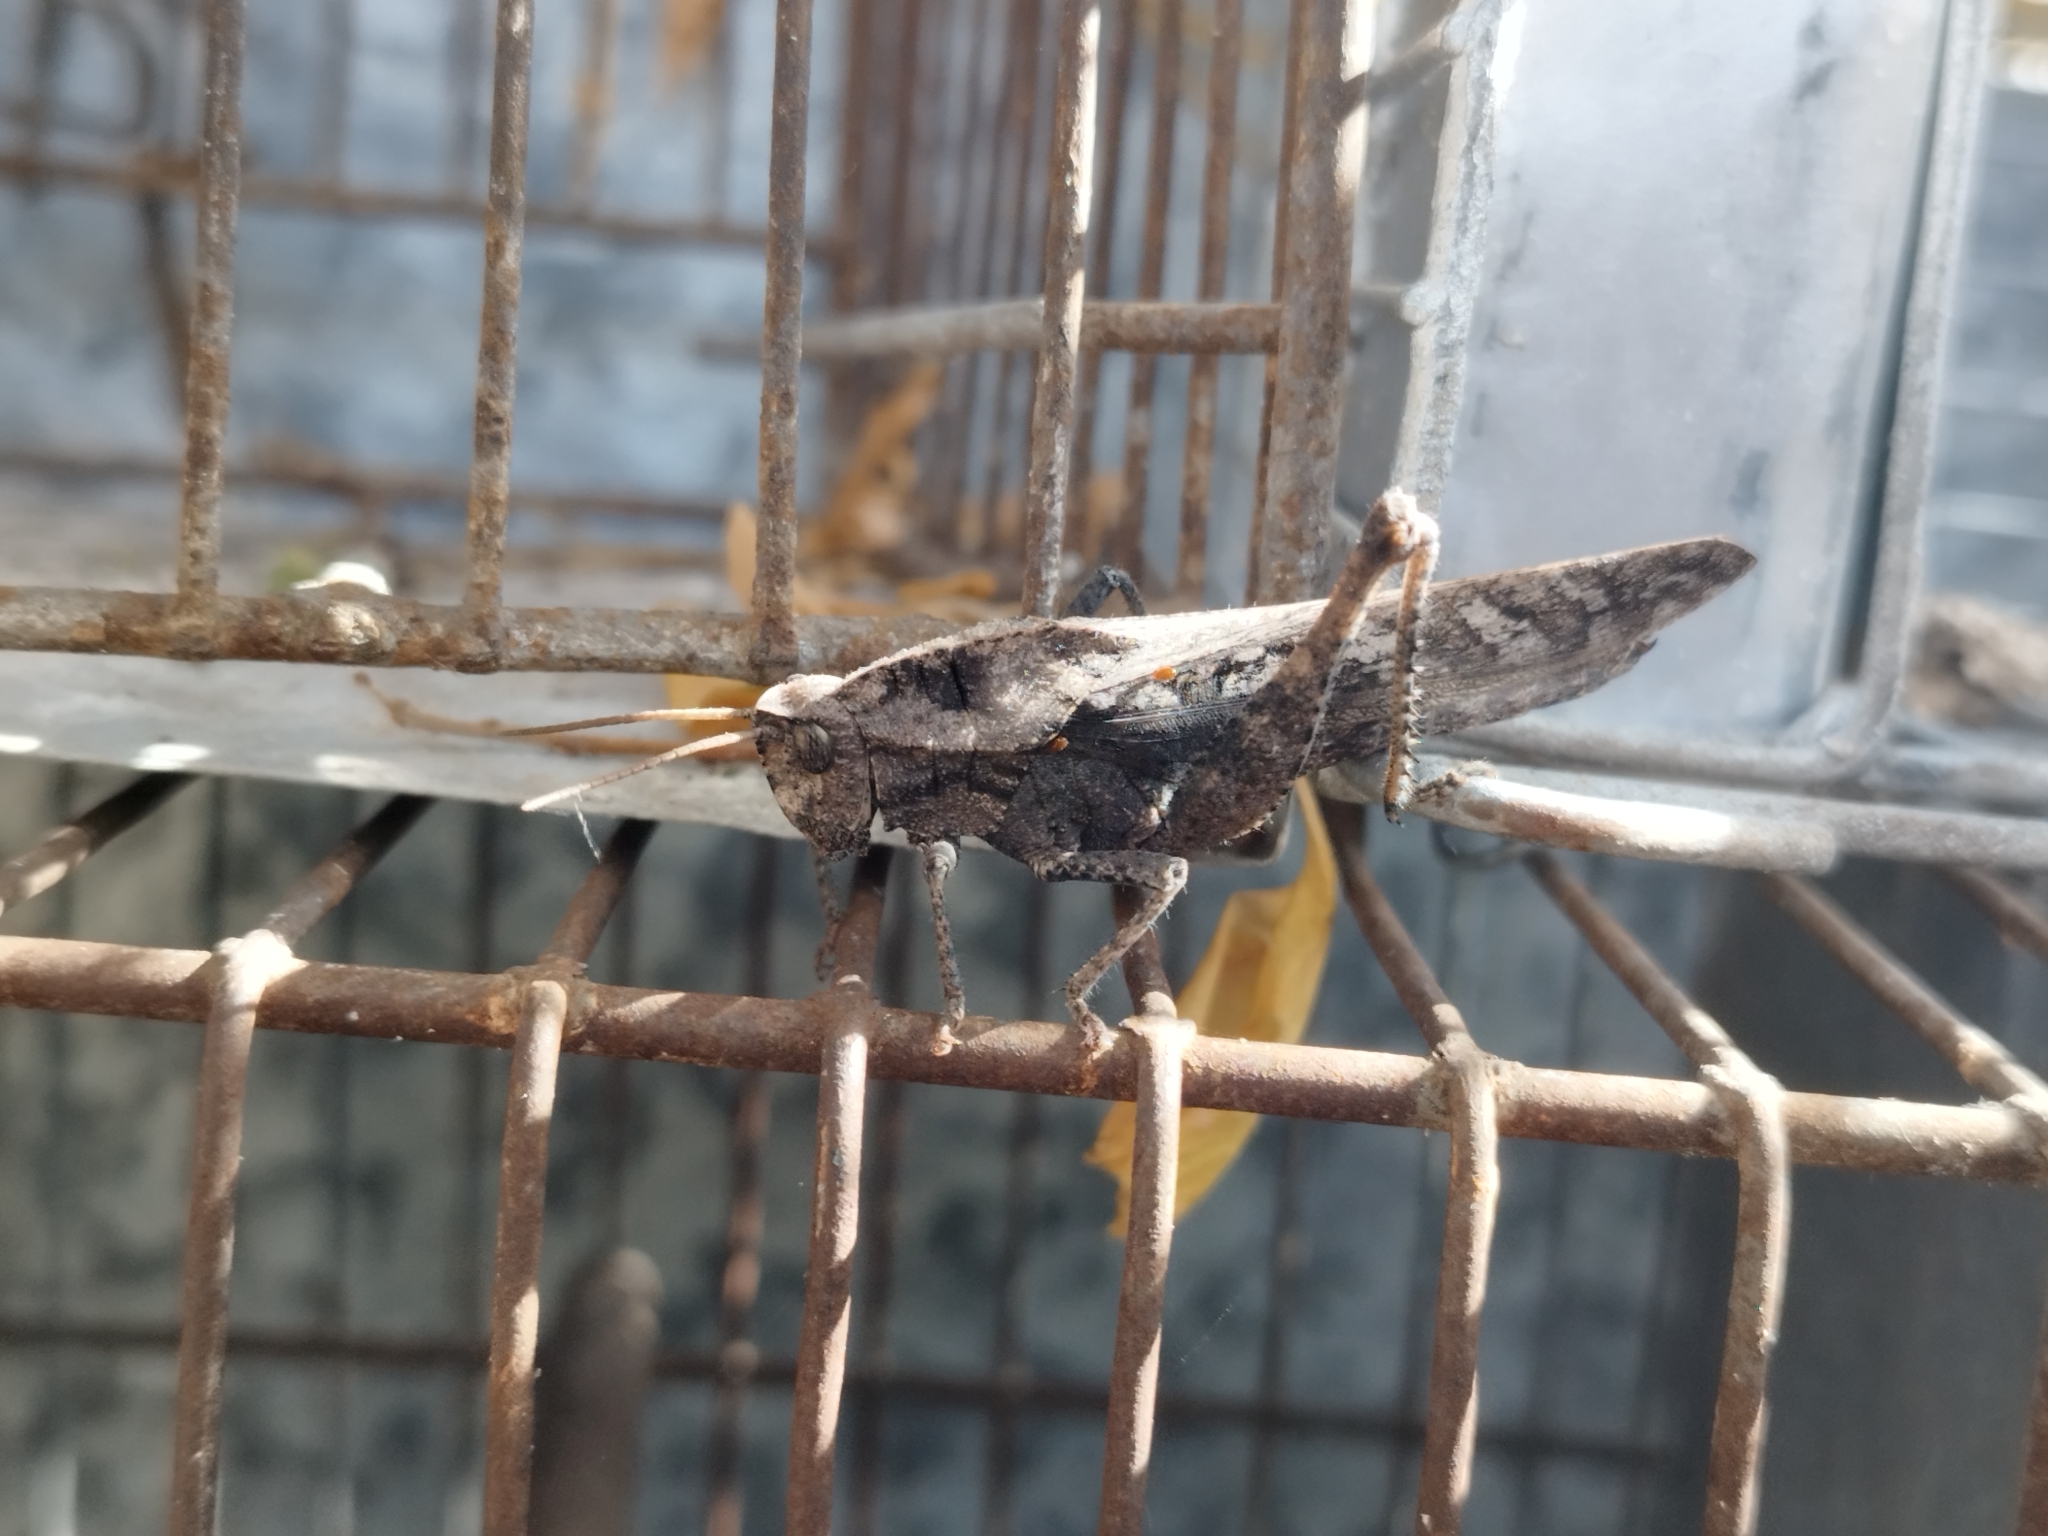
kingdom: Animalia
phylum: Arthropoda
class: Insecta
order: Orthoptera
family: Romaleidae
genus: Xyleus
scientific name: Xyleus discoideus
